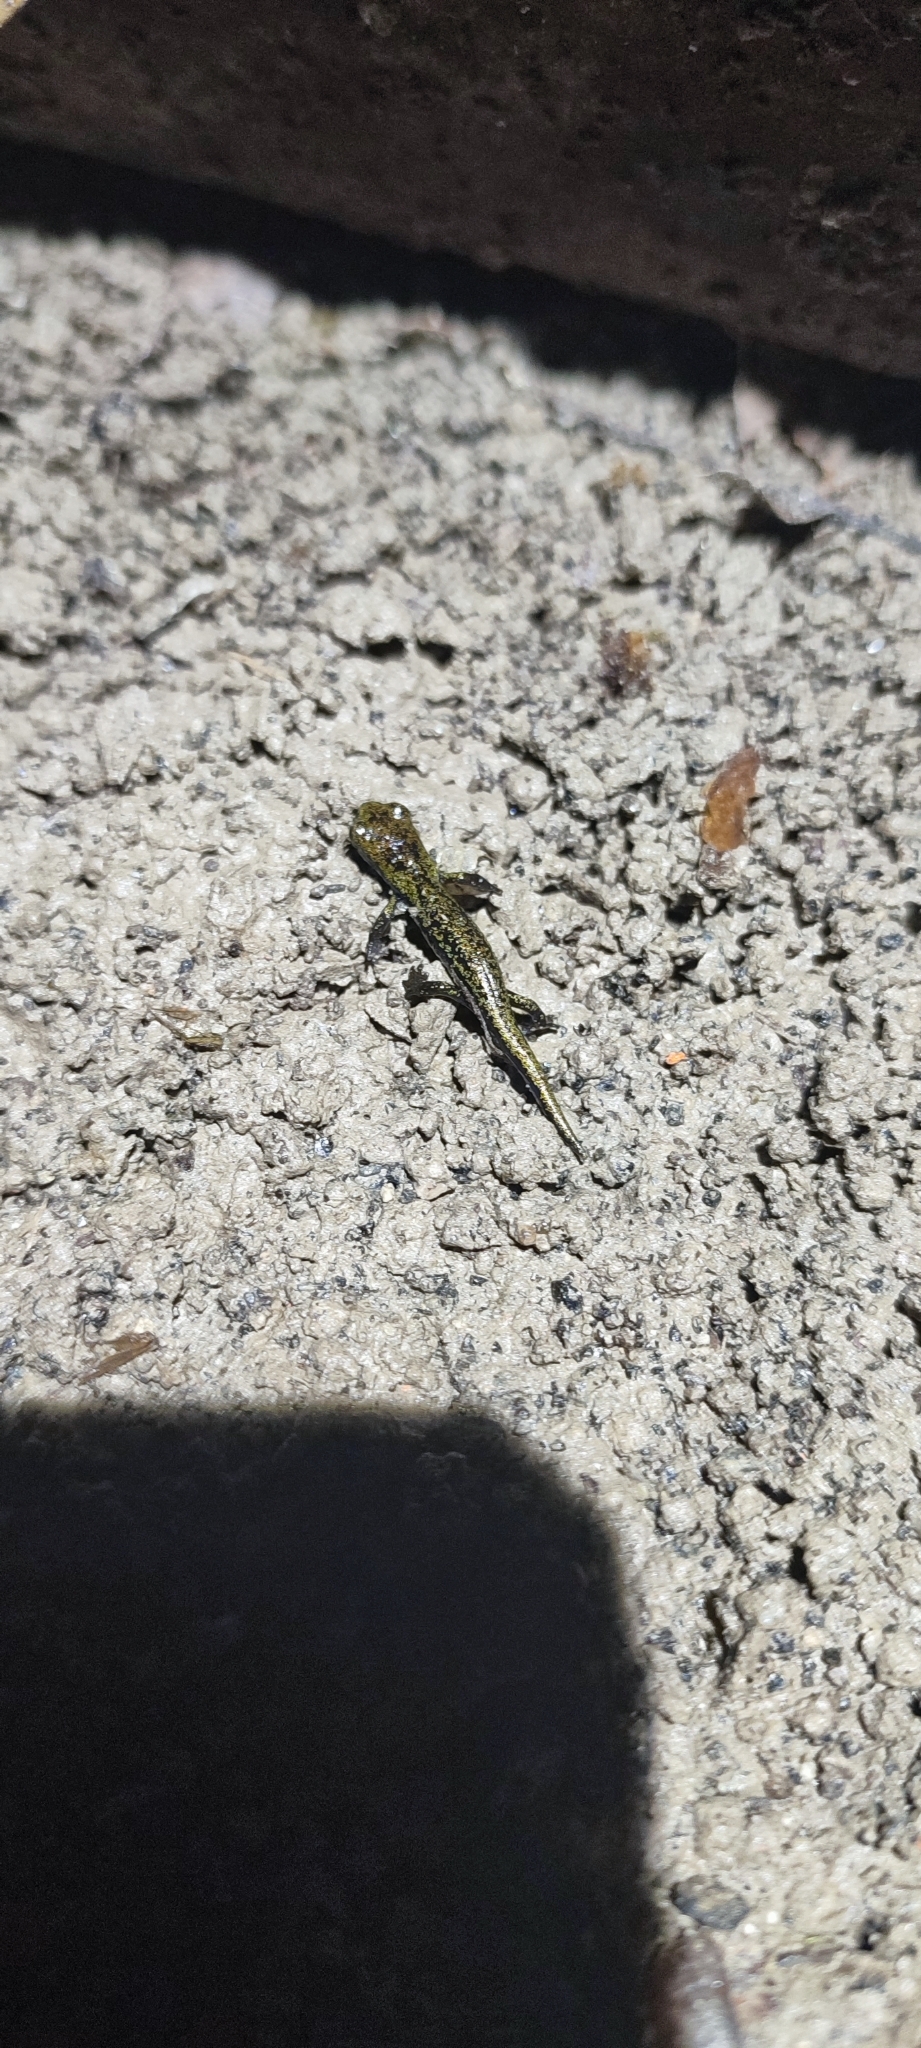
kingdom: Animalia
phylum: Chordata
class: Amphibia
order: Caudata
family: Plethodontidae
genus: Speleomantes
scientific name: Speleomantes strinatii
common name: French cave salamander
